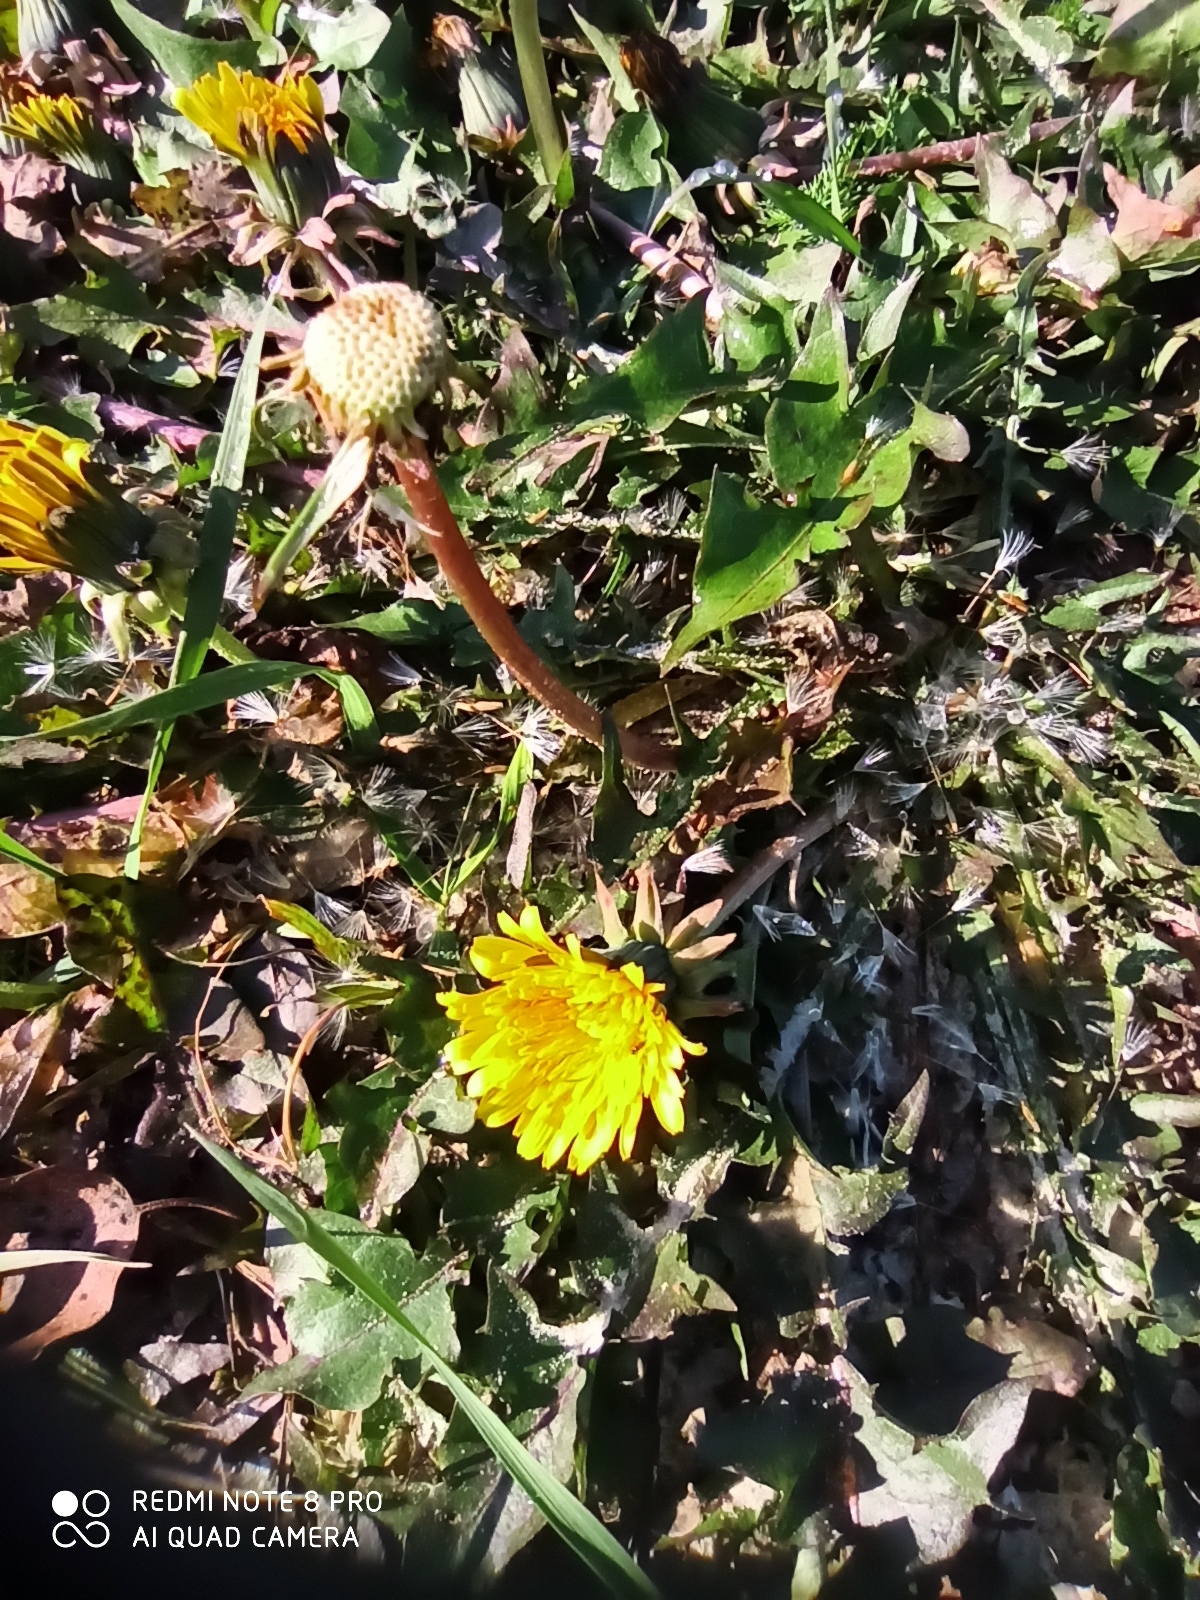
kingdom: Plantae
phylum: Tracheophyta
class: Magnoliopsida
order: Asterales
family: Asteraceae
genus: Taraxacum
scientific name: Taraxacum officinale
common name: Common dandelion
